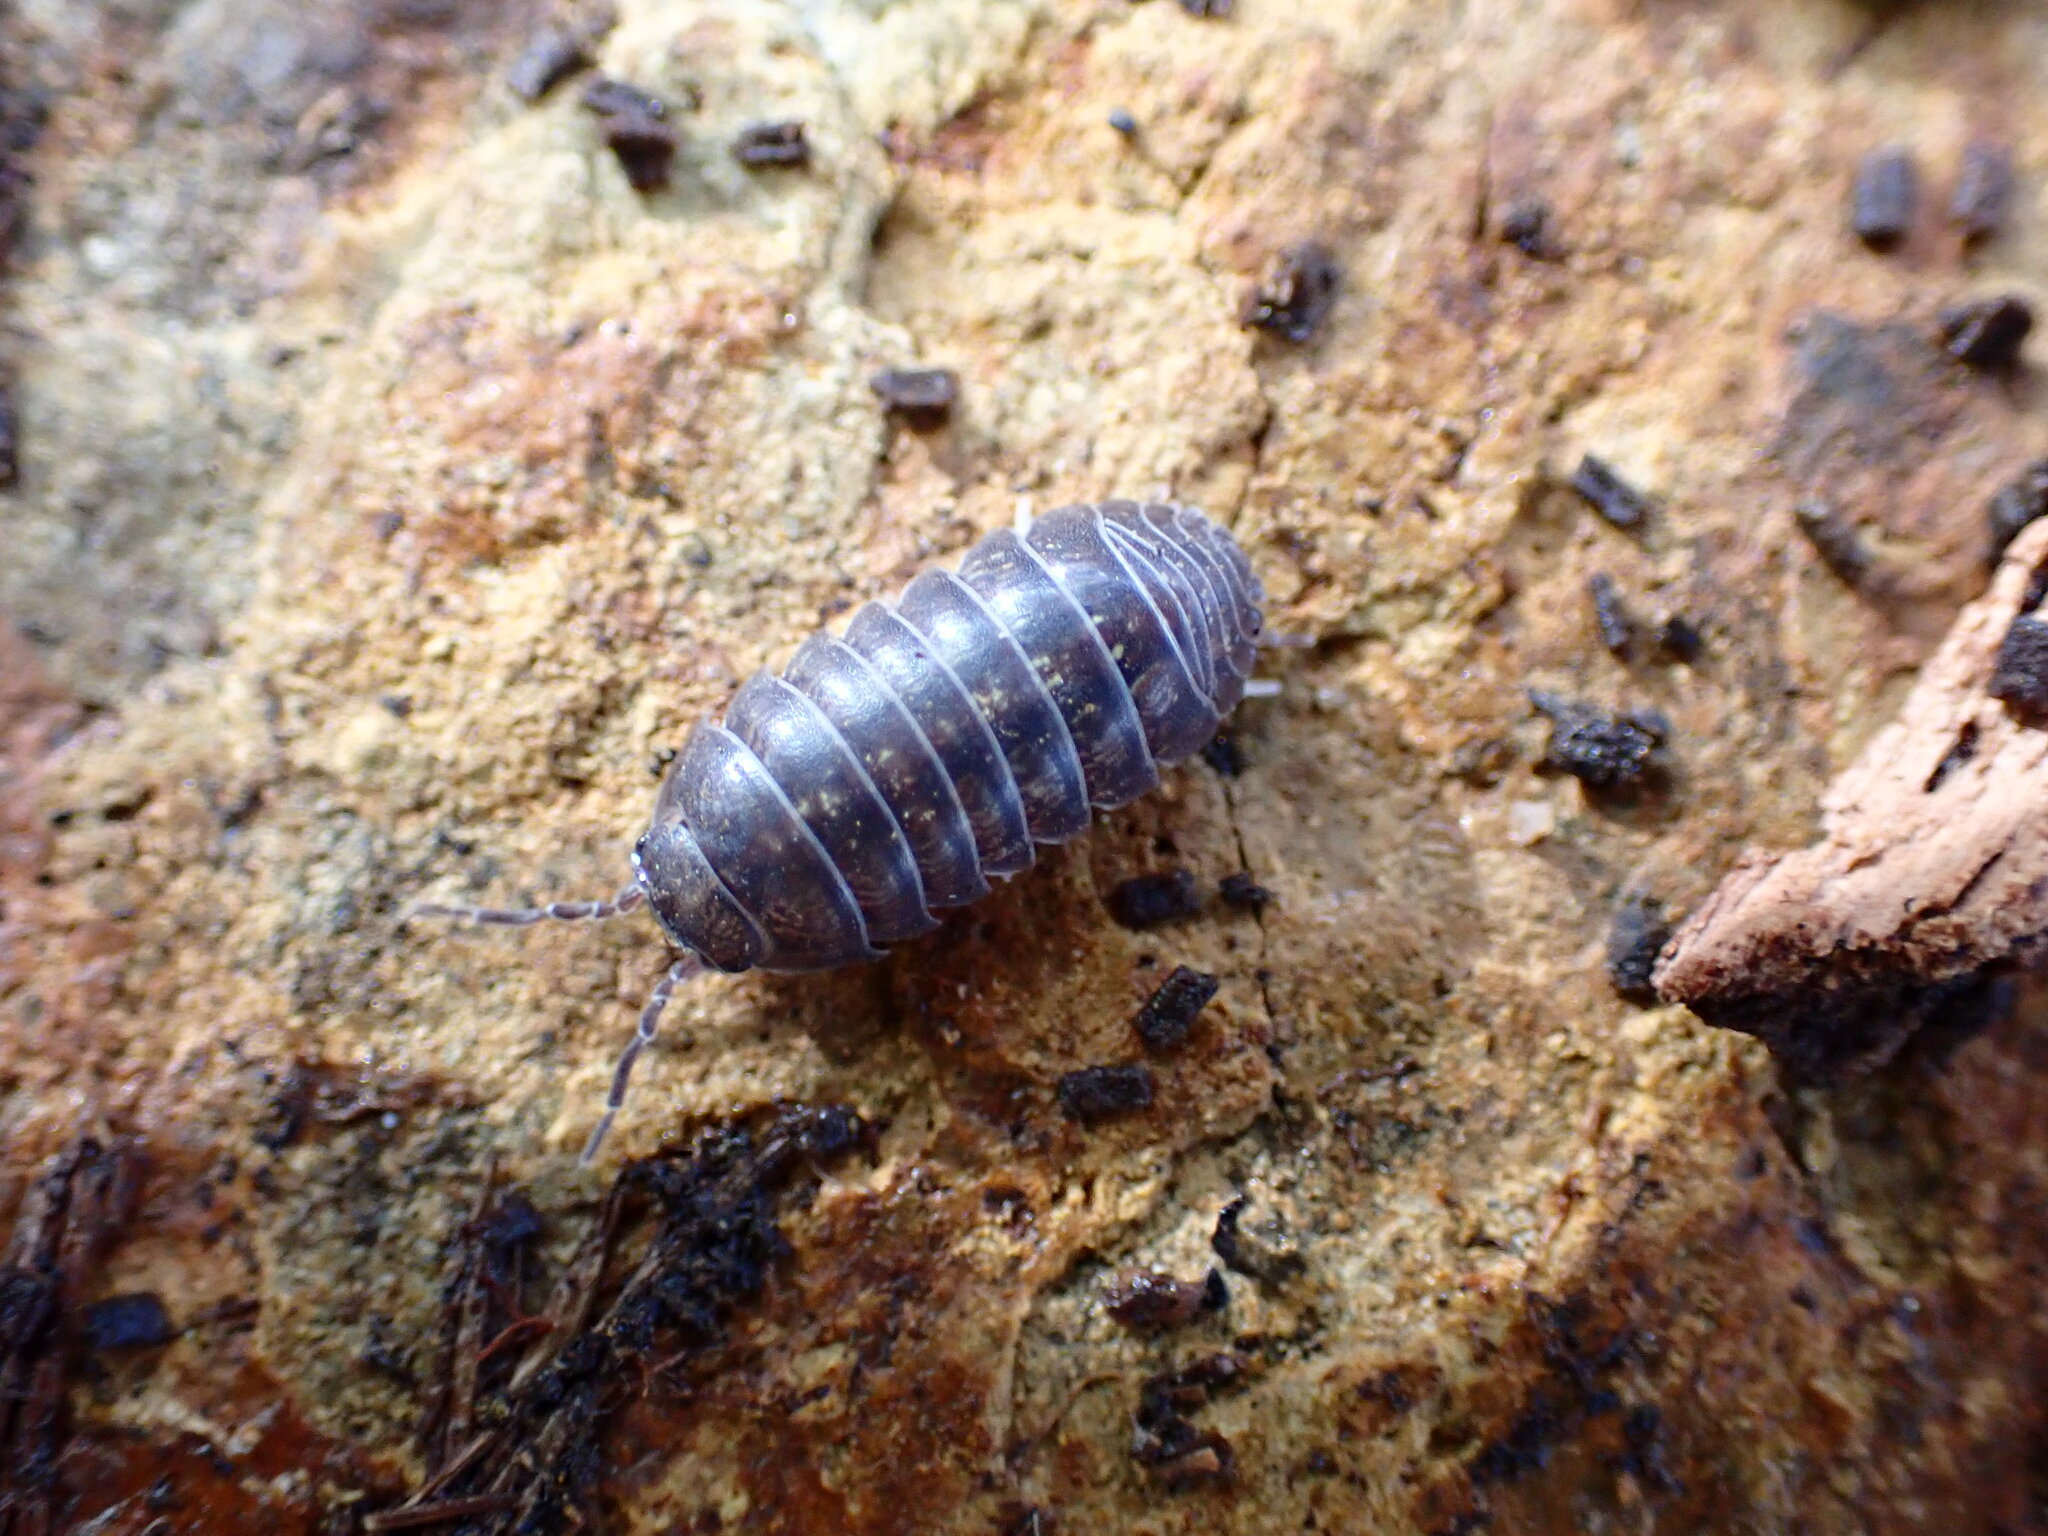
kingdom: Animalia
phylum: Arthropoda
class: Malacostraca
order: Isopoda
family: Armadillidiidae
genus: Armadillidium
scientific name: Armadillidium vulgare
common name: Common pill woodlouse
